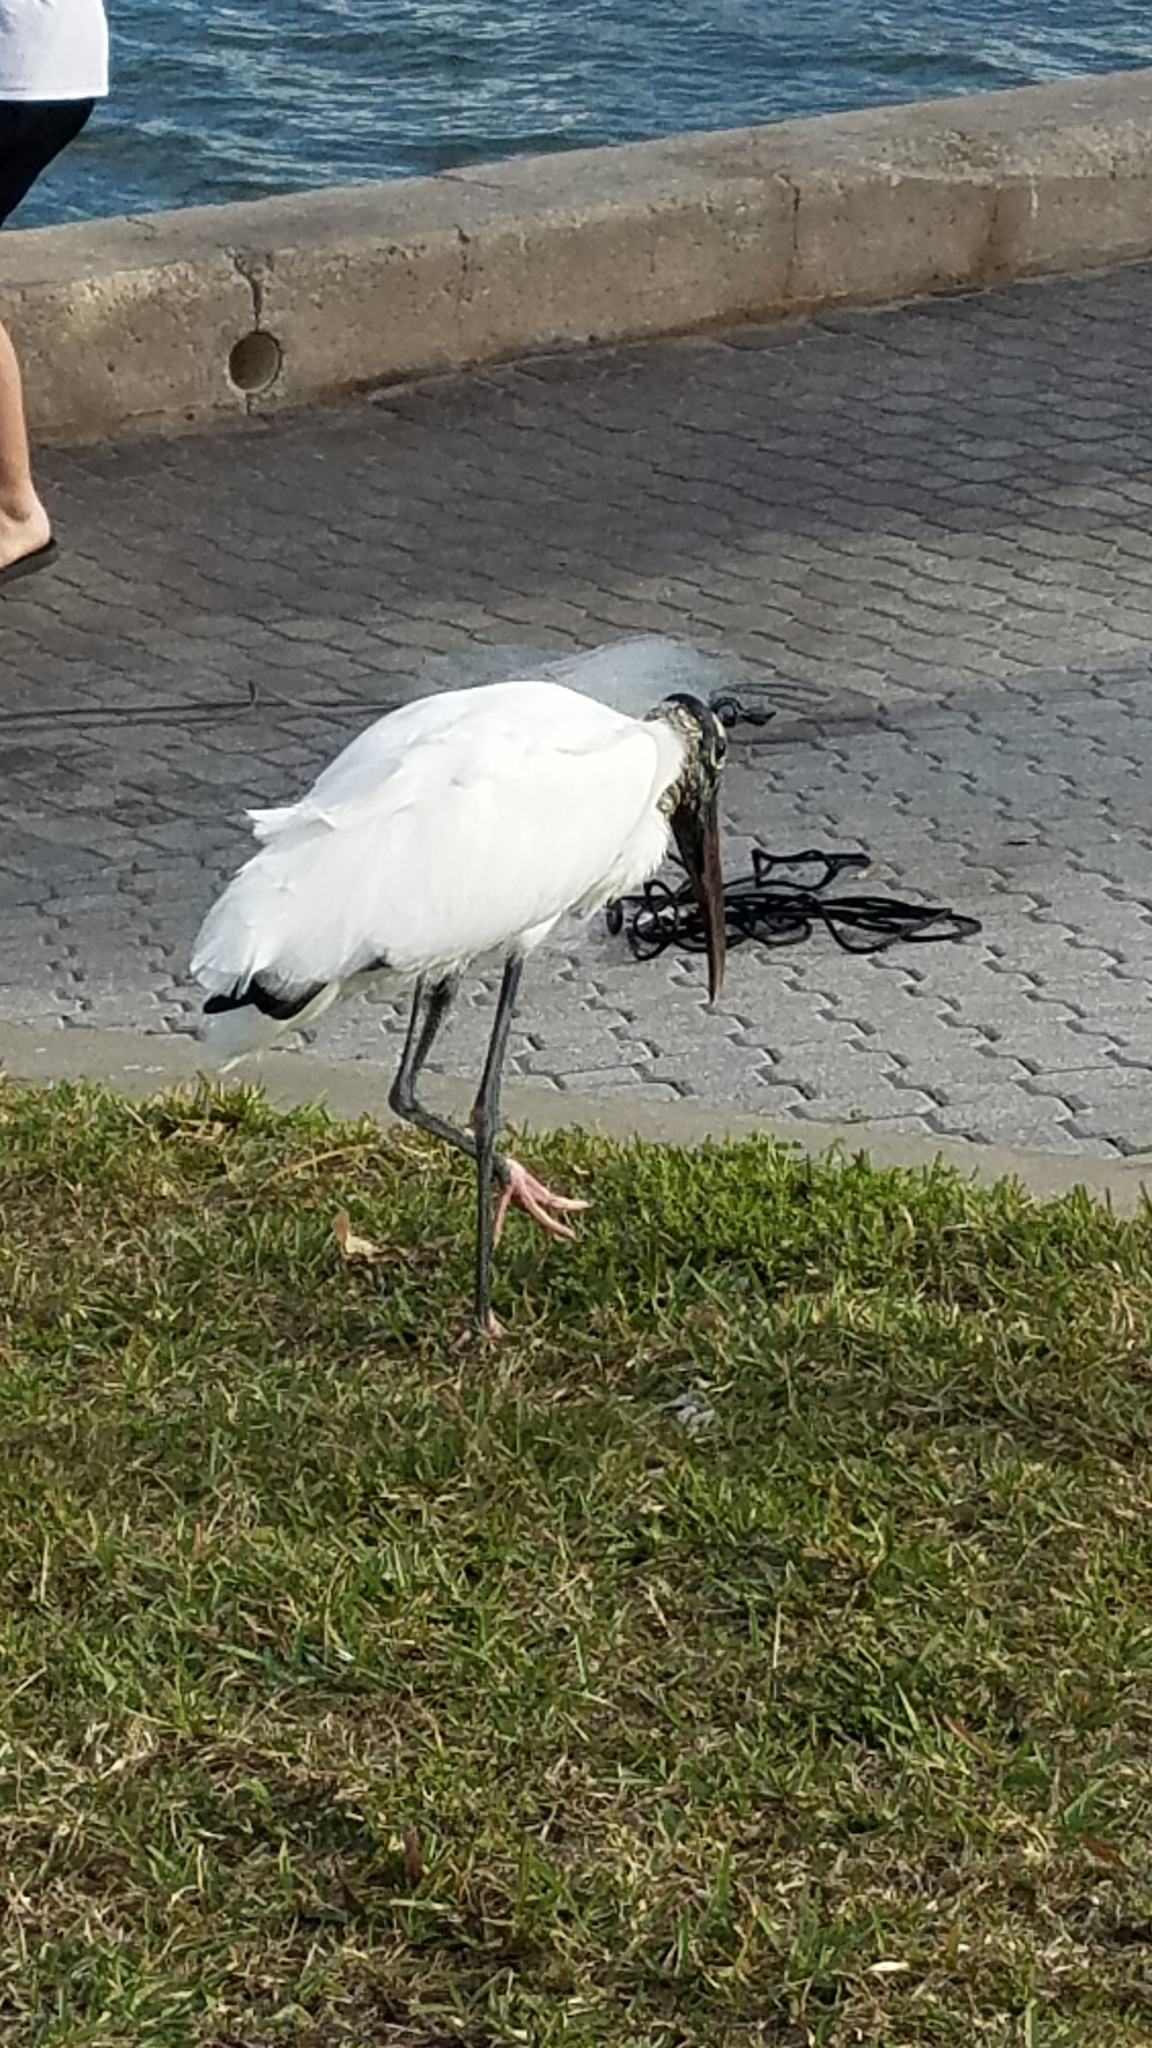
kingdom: Animalia
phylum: Chordata
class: Aves
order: Ciconiiformes
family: Ciconiidae
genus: Mycteria
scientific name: Mycteria americana
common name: Wood stork
